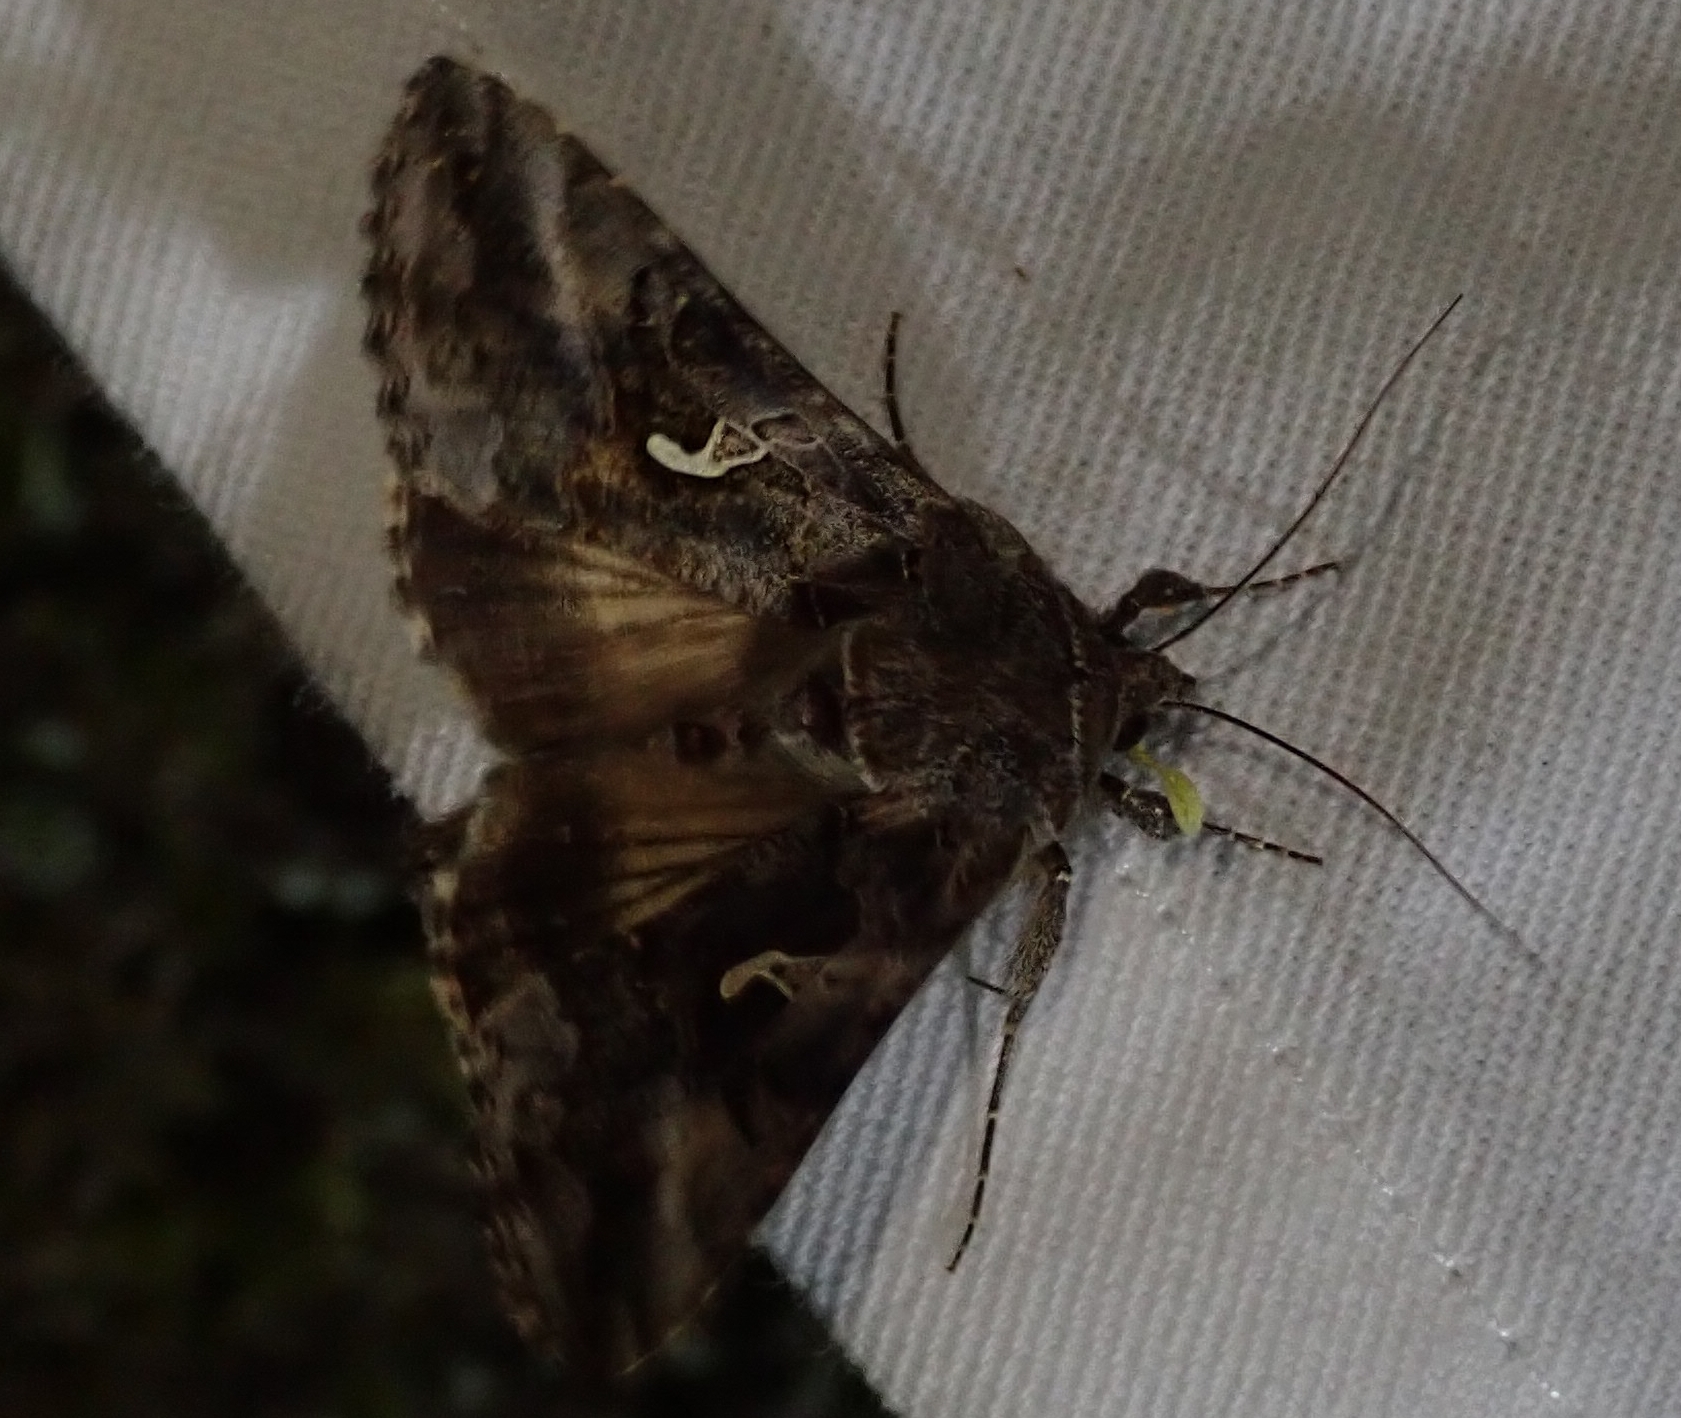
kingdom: Animalia
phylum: Arthropoda
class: Insecta
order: Lepidoptera
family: Noctuidae
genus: Autographa
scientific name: Autographa gamma
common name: Silver y
